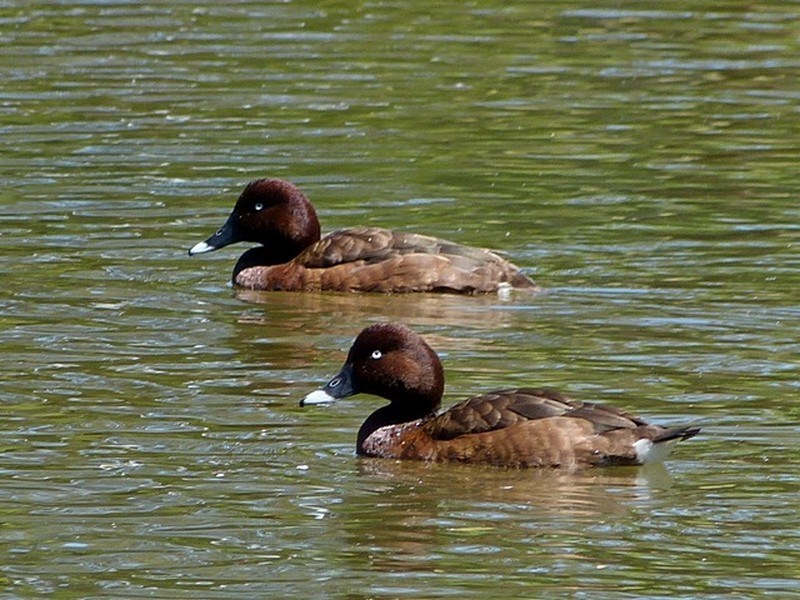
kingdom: Animalia
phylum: Chordata
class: Aves
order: Anseriformes
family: Anatidae
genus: Aythya
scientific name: Aythya australis
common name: Hardhead
